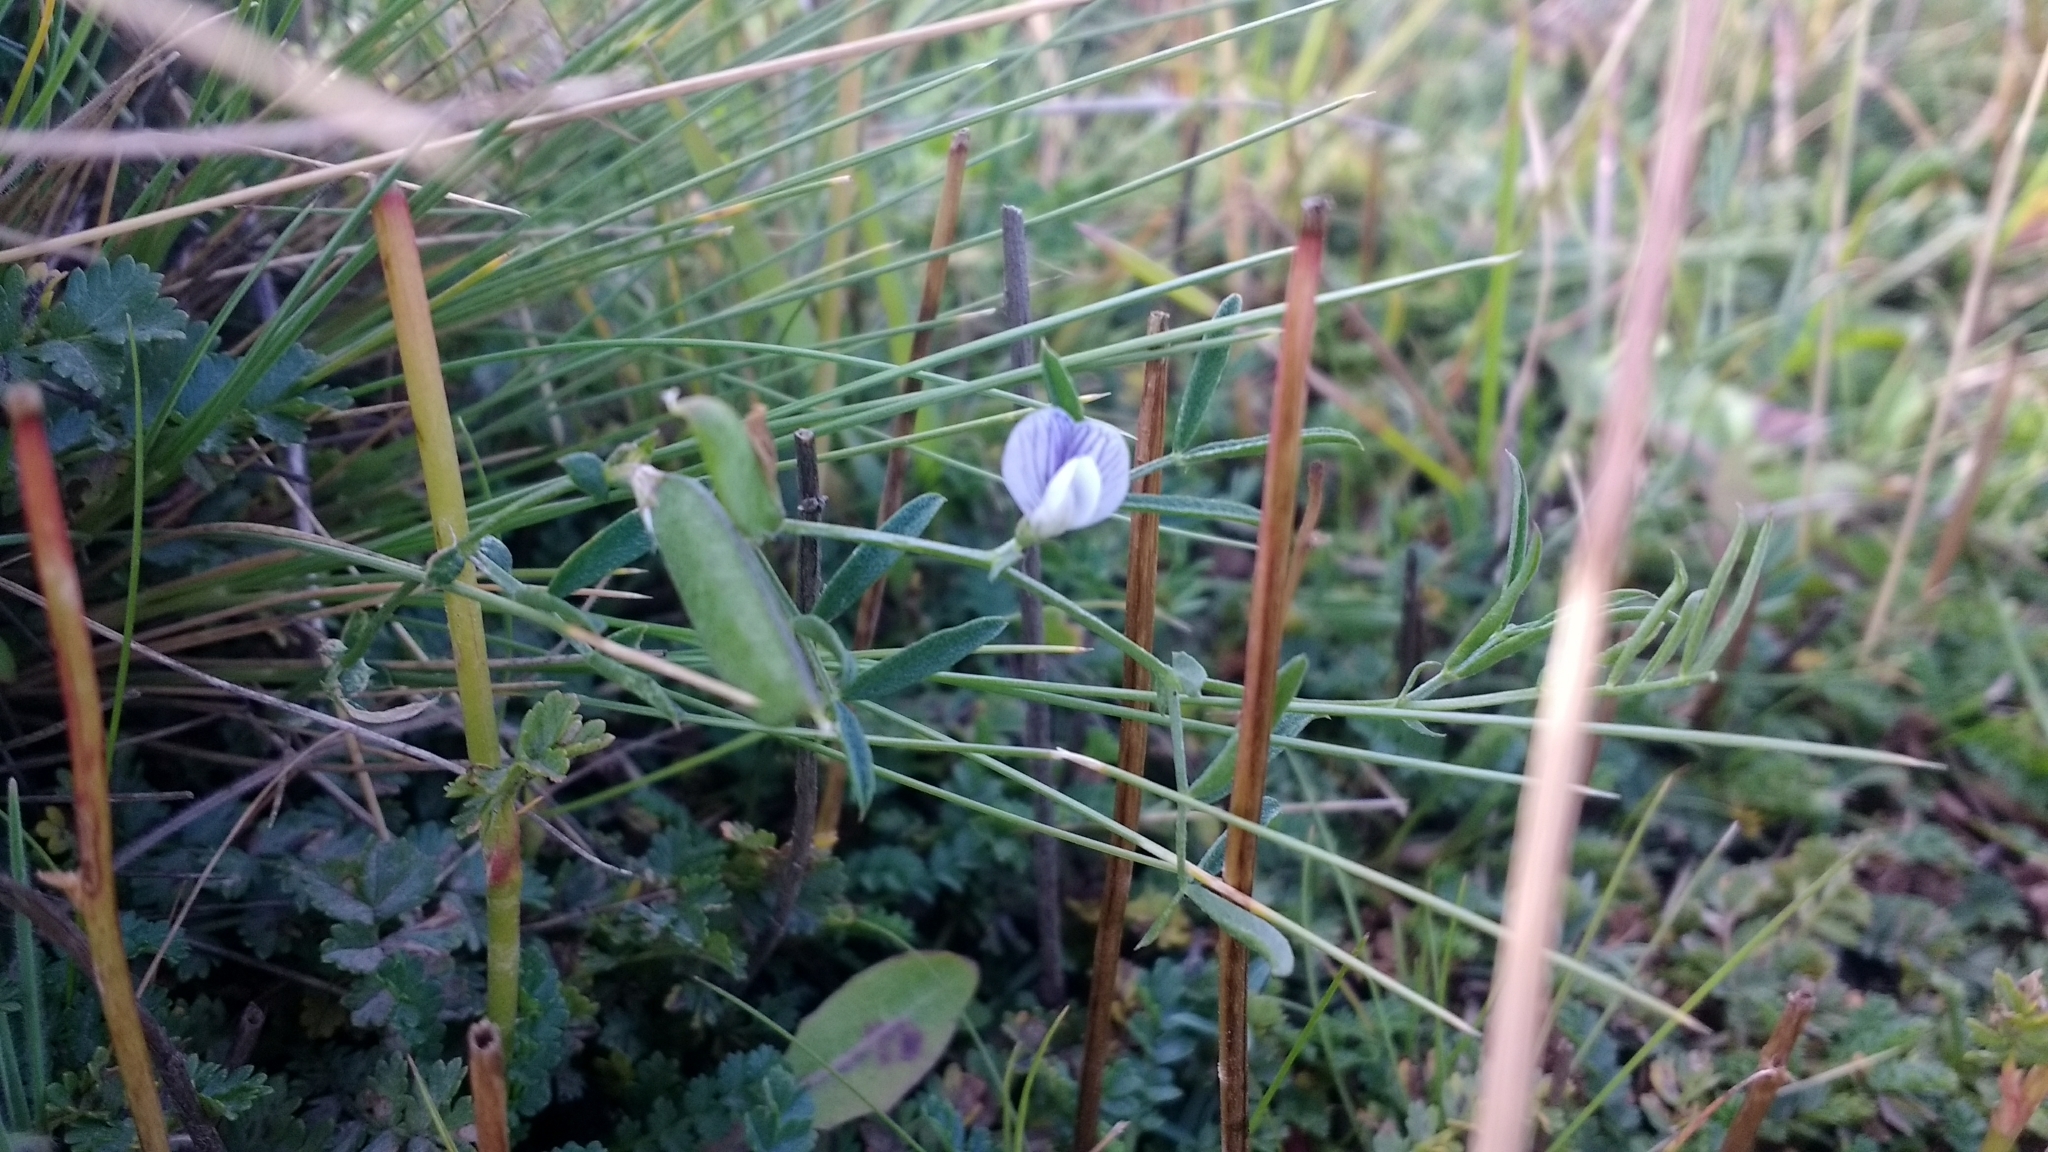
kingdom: Plantae
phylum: Tracheophyta
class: Magnoliopsida
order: Fabales
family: Fabaceae
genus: Vicia
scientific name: Vicia magellanica
